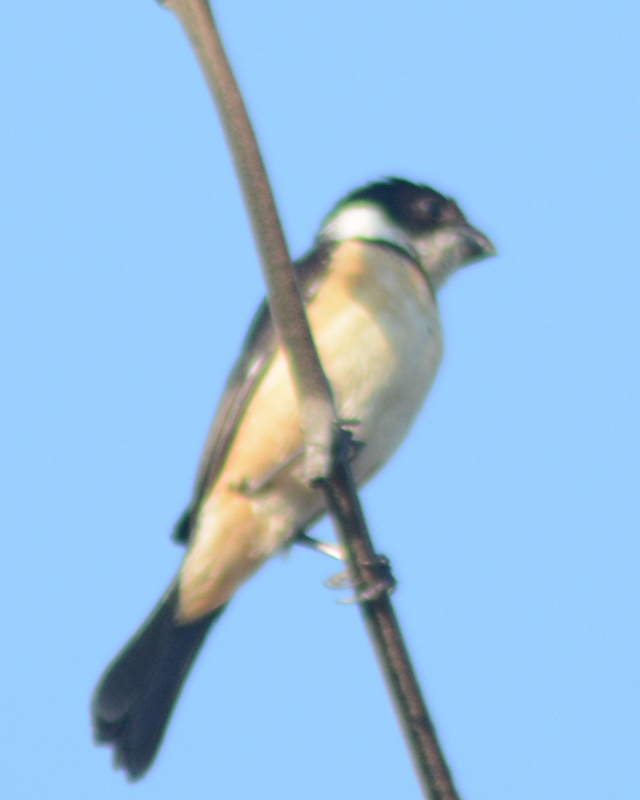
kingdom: Animalia
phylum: Chordata
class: Aves
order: Passeriformes
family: Thraupidae
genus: Sporophila
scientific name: Sporophila torqueola
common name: White-collared seedeater
